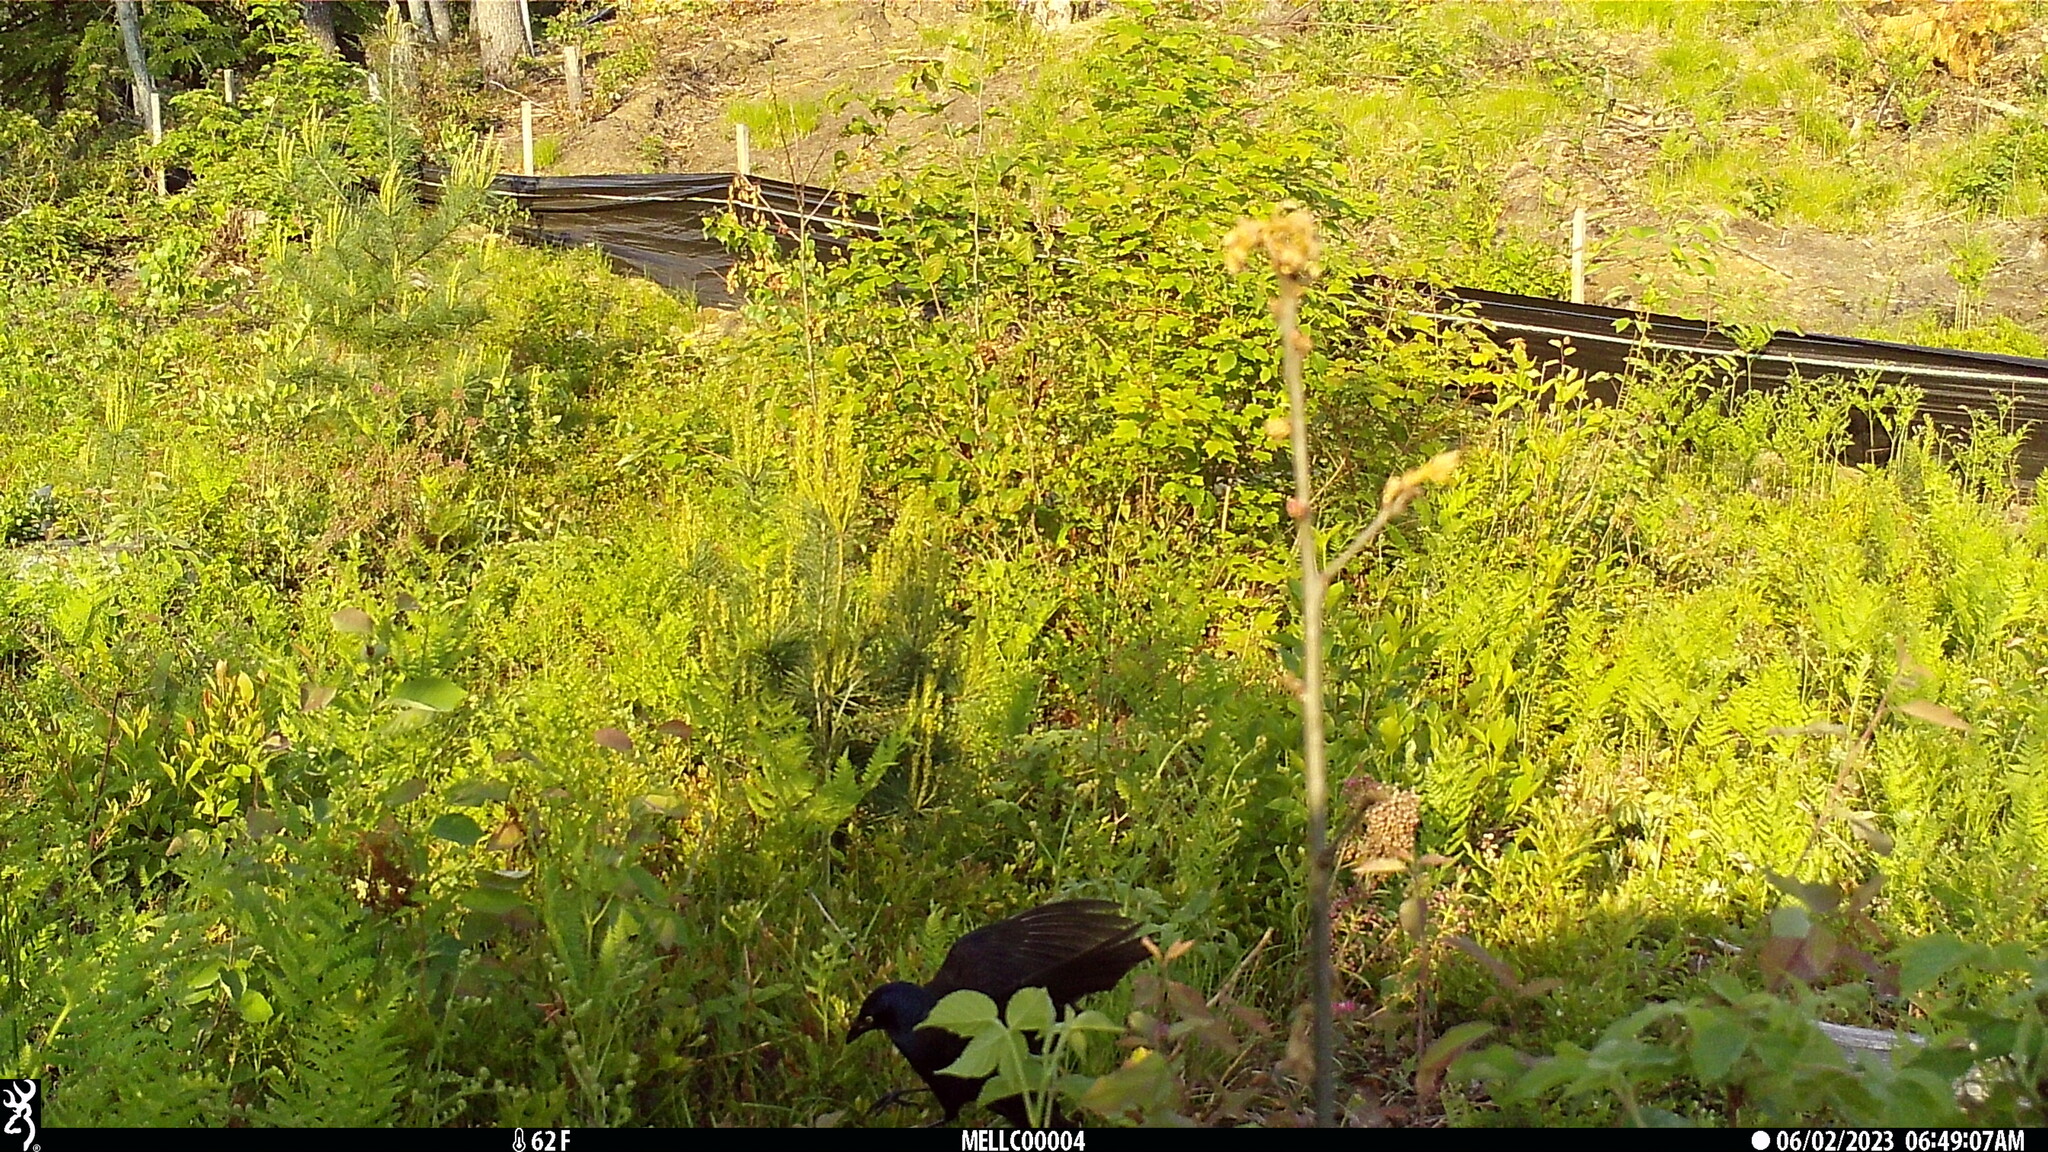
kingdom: Animalia
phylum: Chordata
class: Aves
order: Passeriformes
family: Icteridae
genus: Quiscalus
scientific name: Quiscalus quiscula
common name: Common grackle
